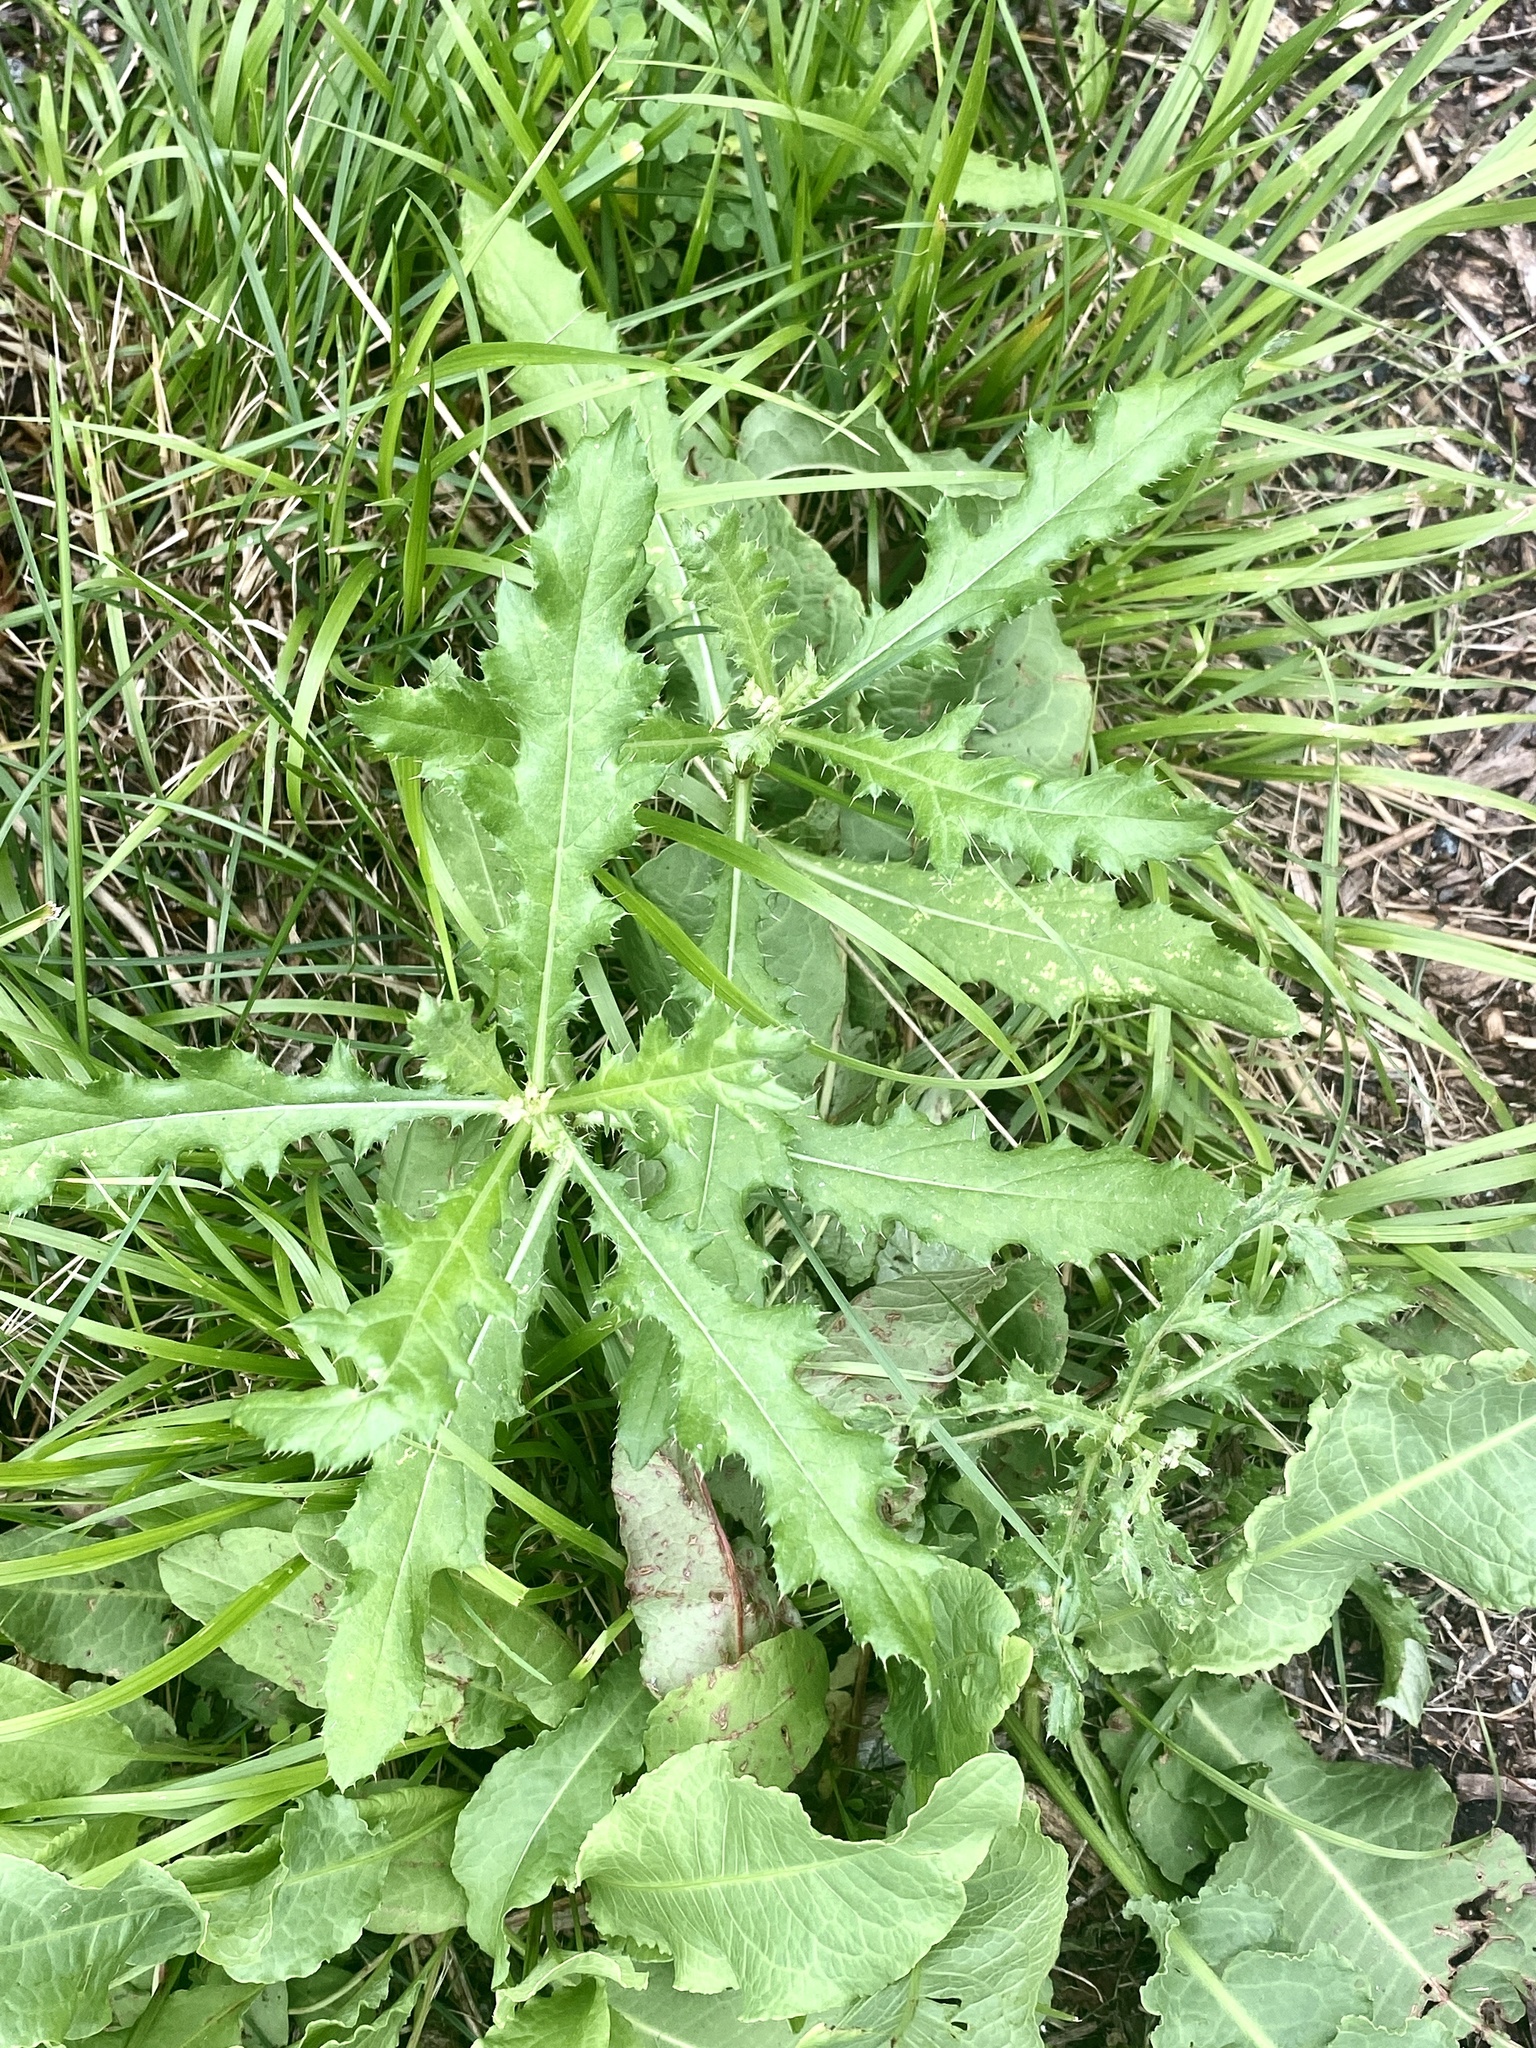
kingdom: Plantae
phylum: Tracheophyta
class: Magnoliopsida
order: Asterales
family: Asteraceae
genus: Cirsium
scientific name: Cirsium arvense
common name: Creeping thistle
